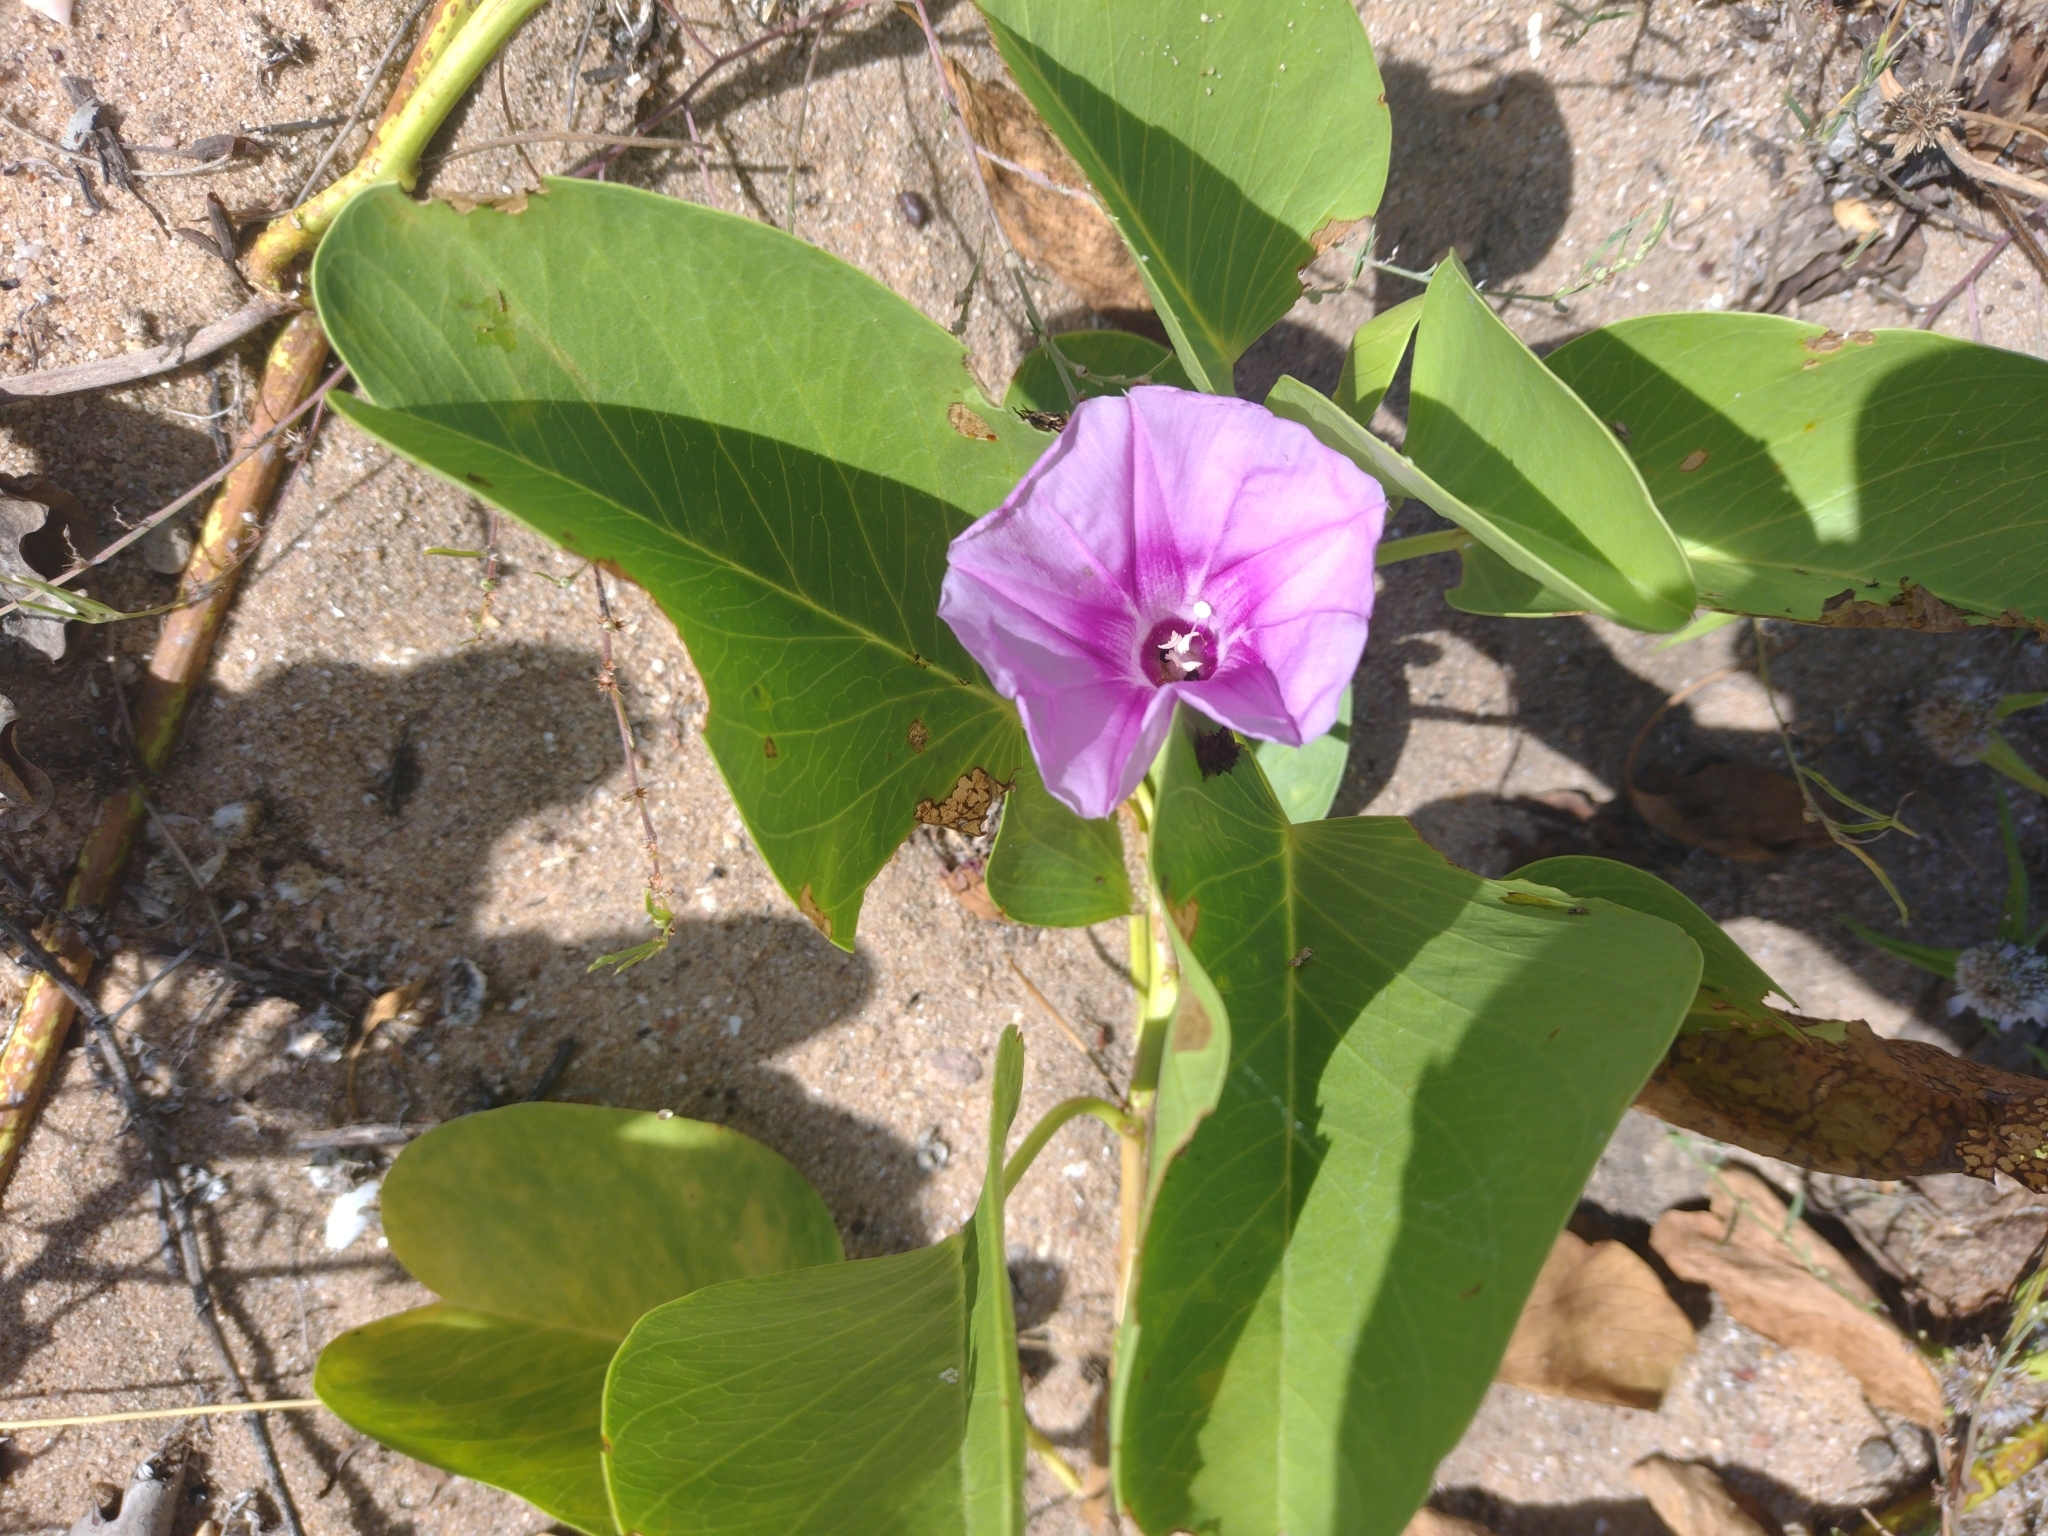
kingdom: Plantae
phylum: Tracheophyta
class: Magnoliopsida
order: Solanales
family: Convolvulaceae
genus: Ipomoea
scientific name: Ipomoea pes-caprae
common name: Beach morning glory
